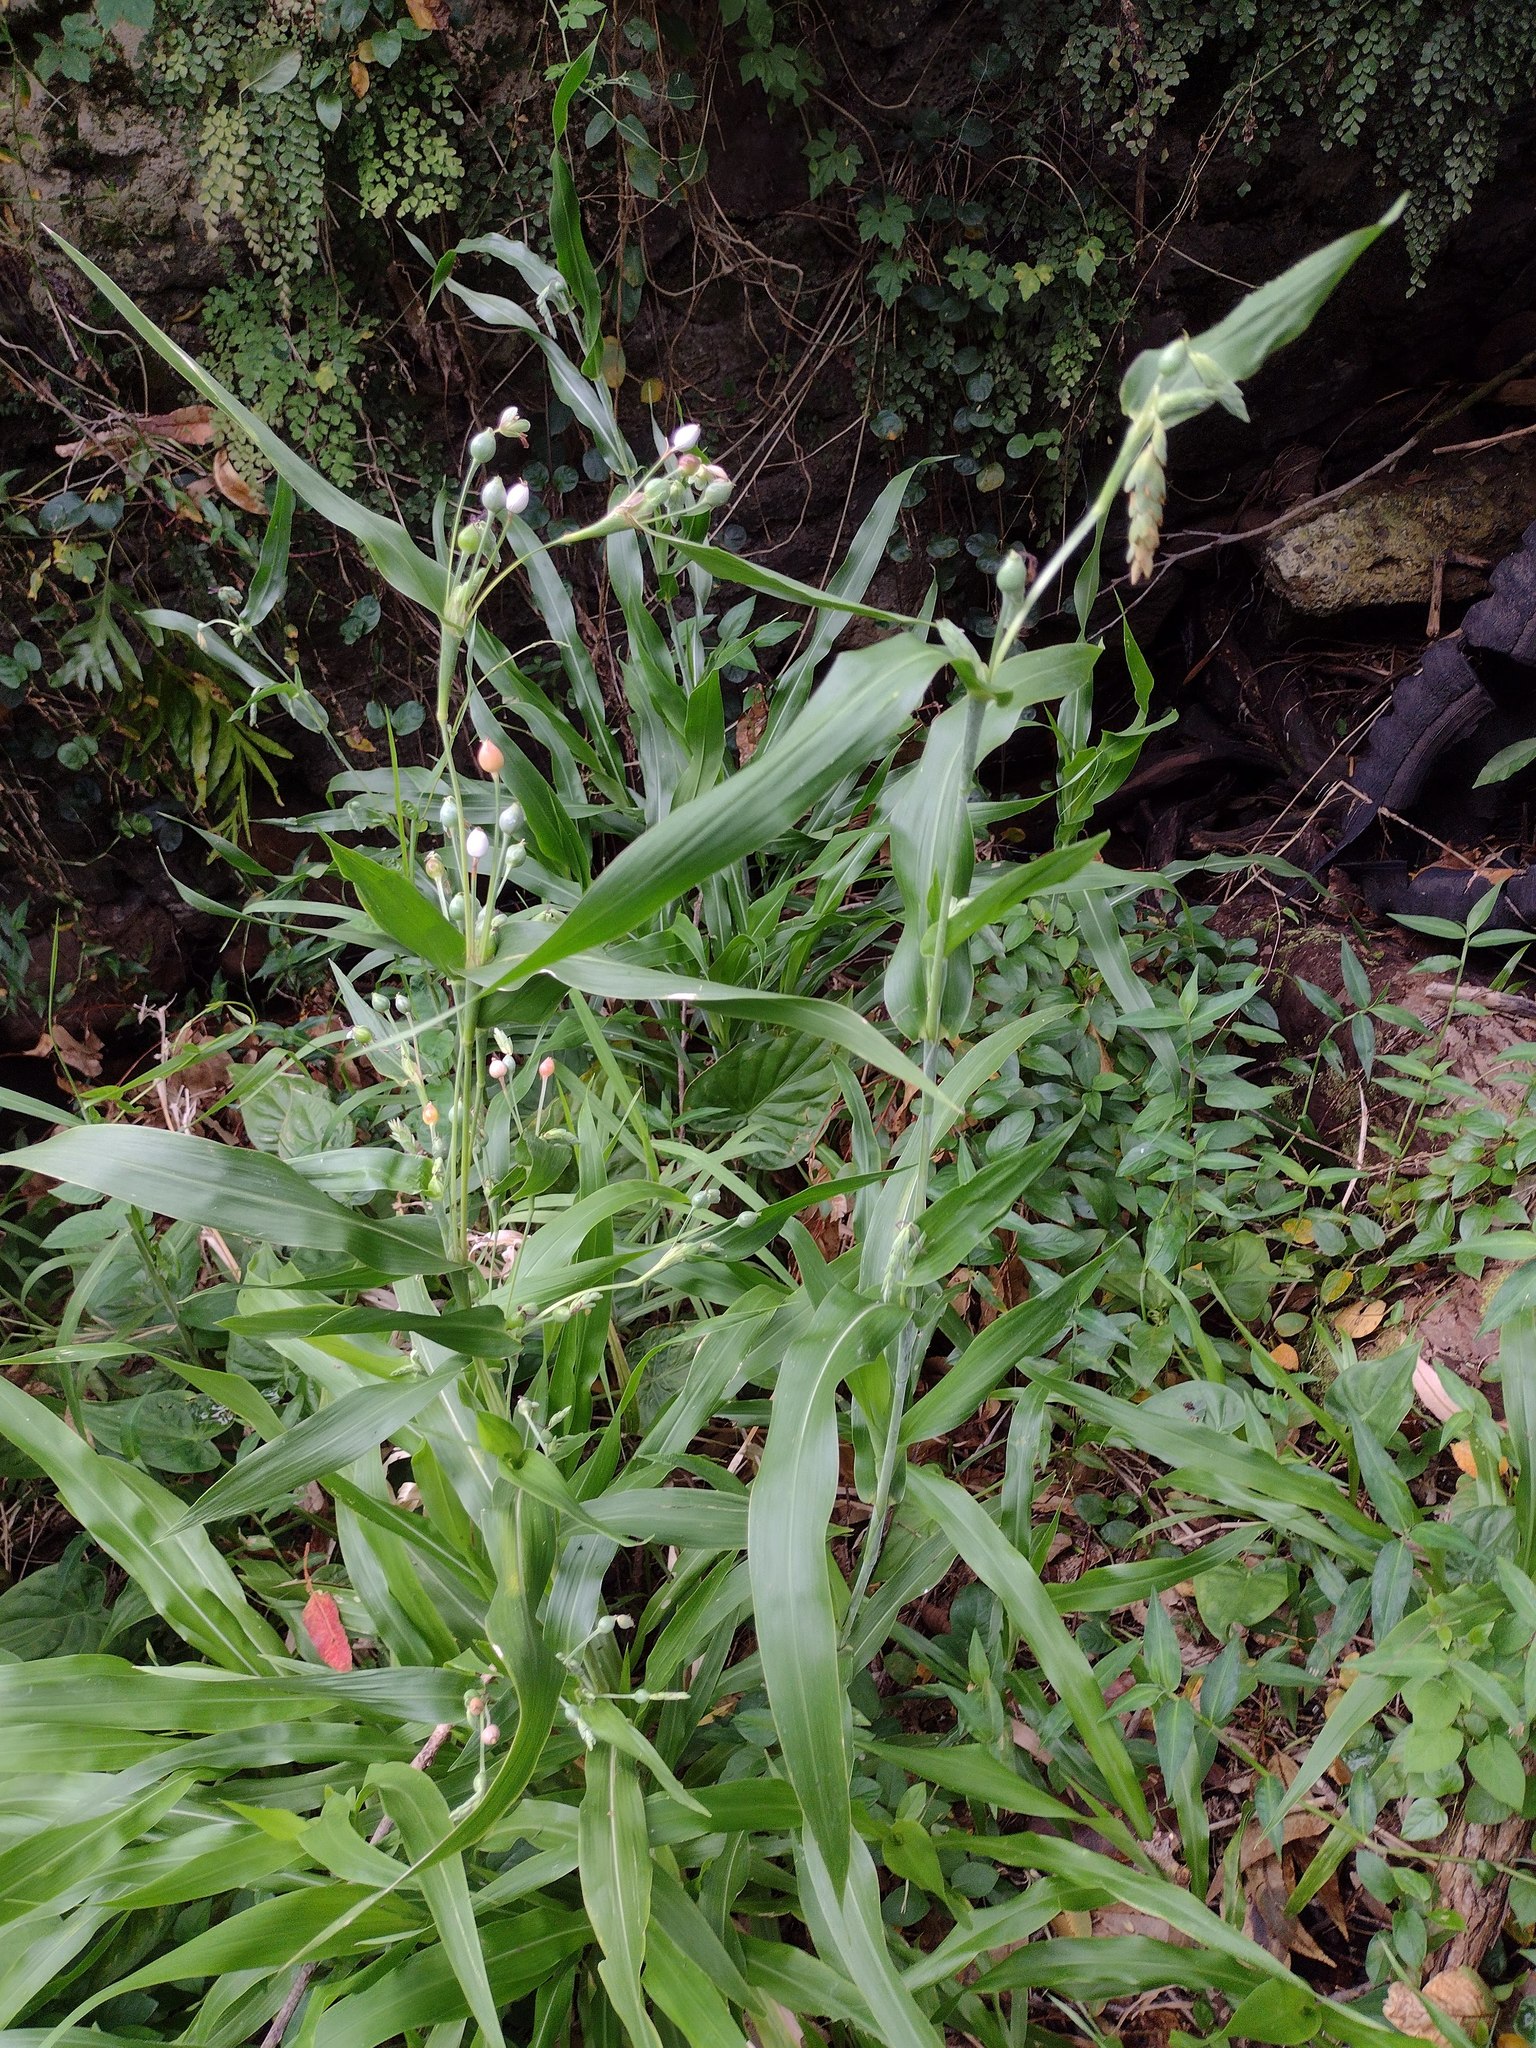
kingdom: Plantae
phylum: Tracheophyta
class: Liliopsida
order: Poales
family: Poaceae
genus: Coix
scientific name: Coix lacryma-jobi
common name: Job's tears
